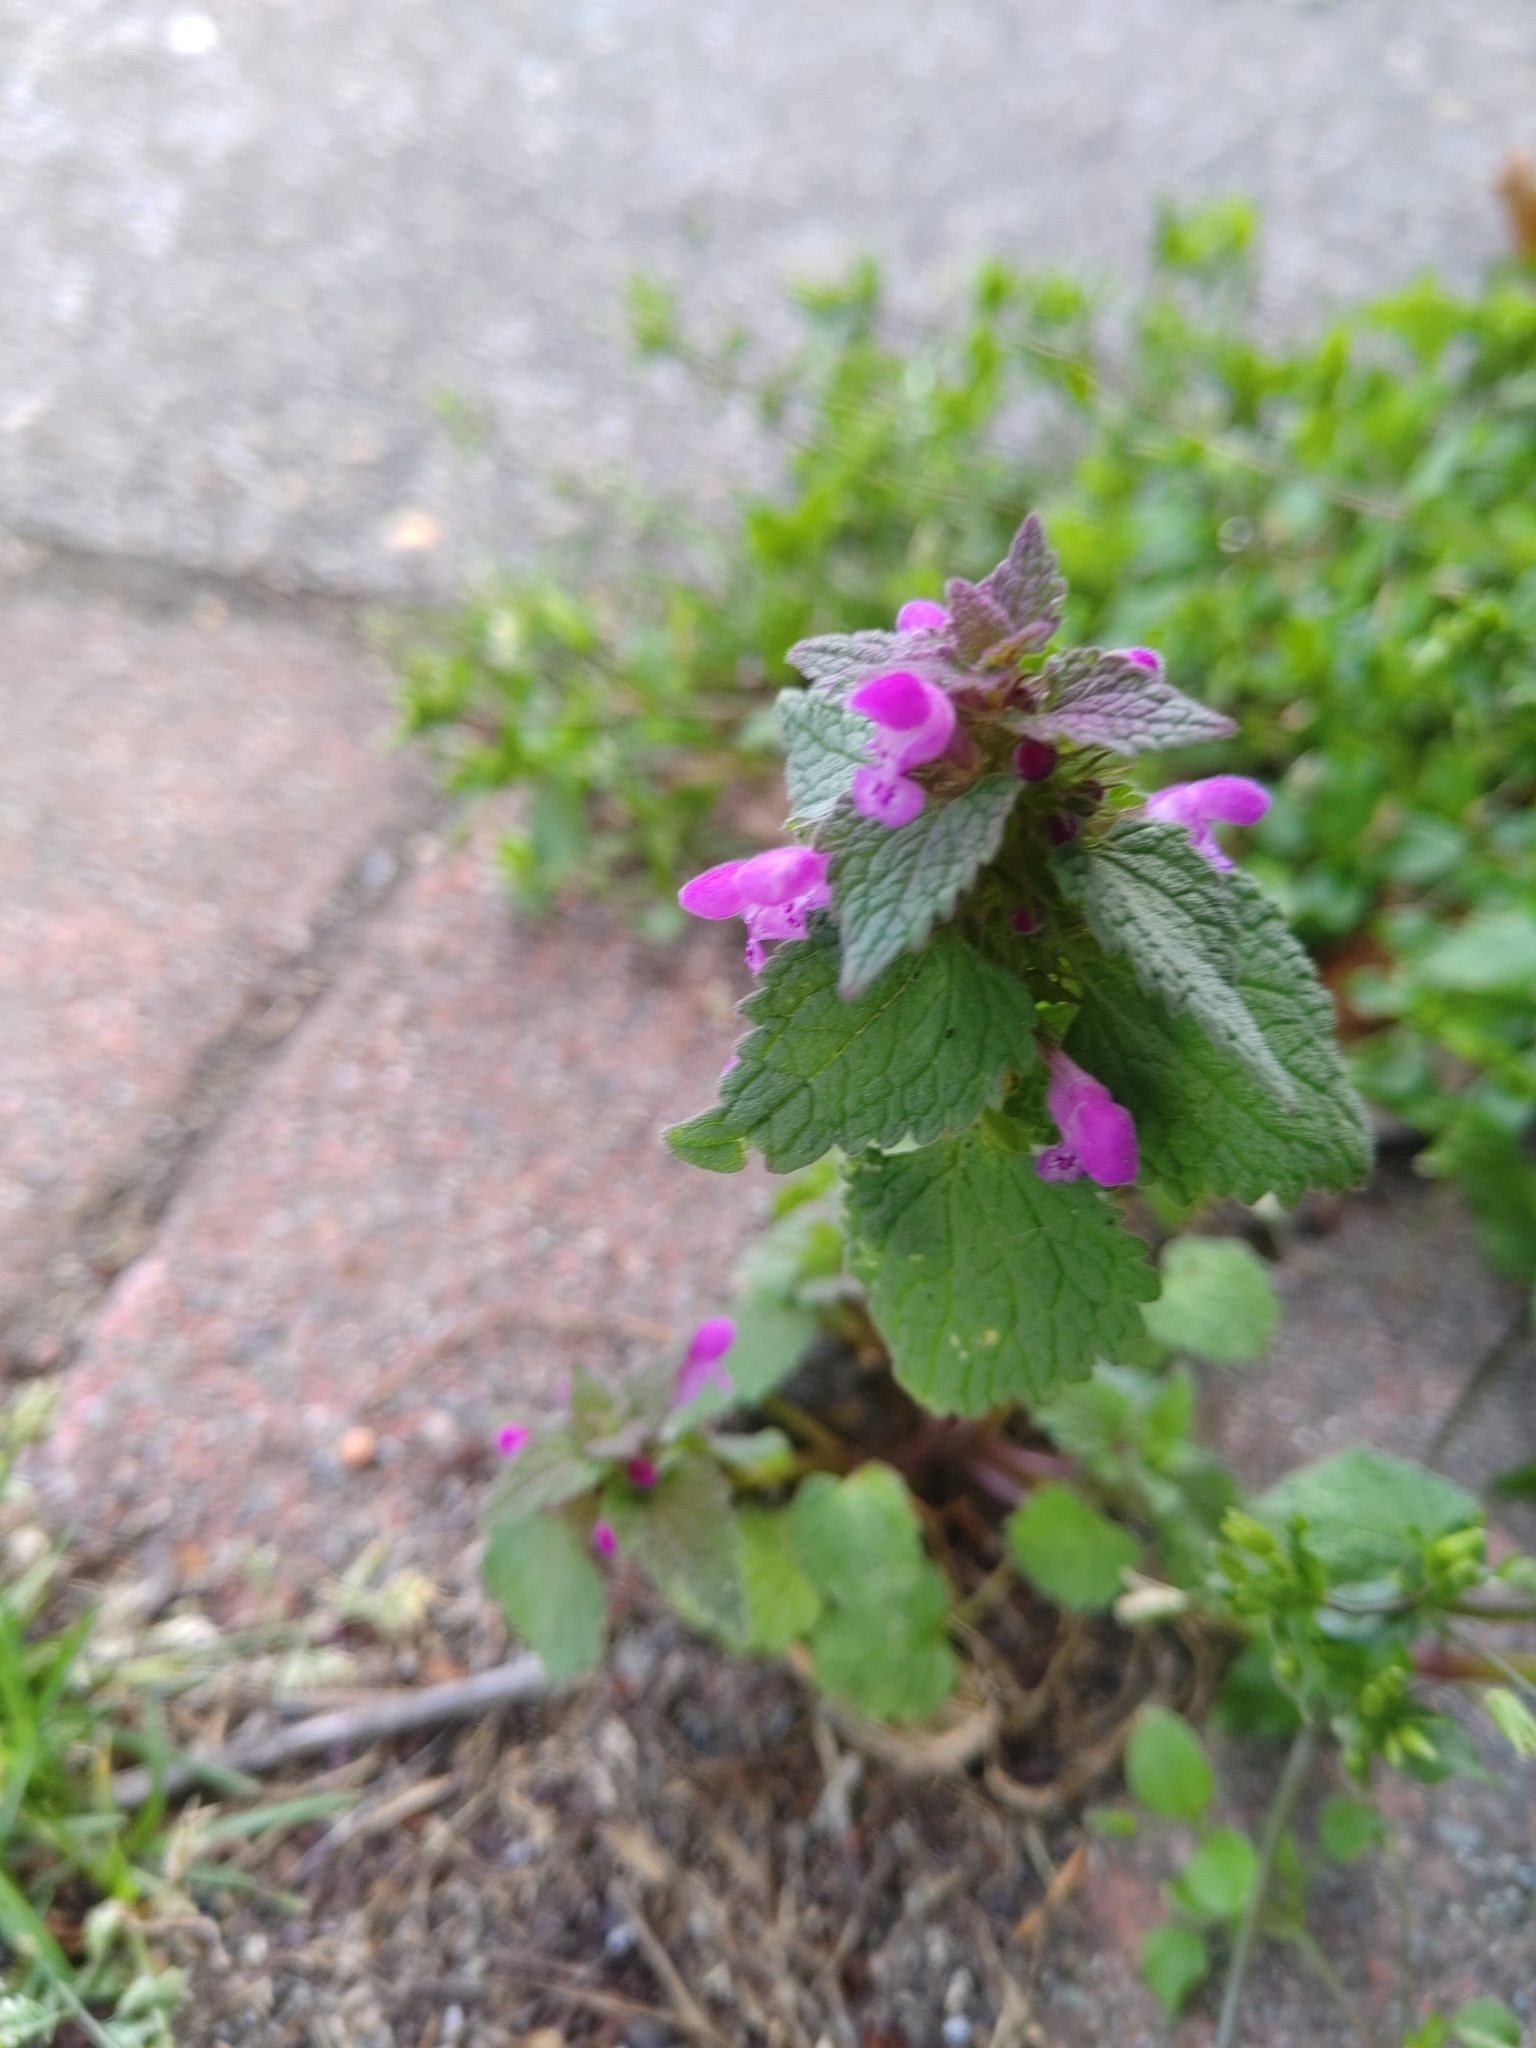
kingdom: Plantae
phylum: Tracheophyta
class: Magnoliopsida
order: Lamiales
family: Lamiaceae
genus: Lamium
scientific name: Lamium purpureum
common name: Red dead-nettle
